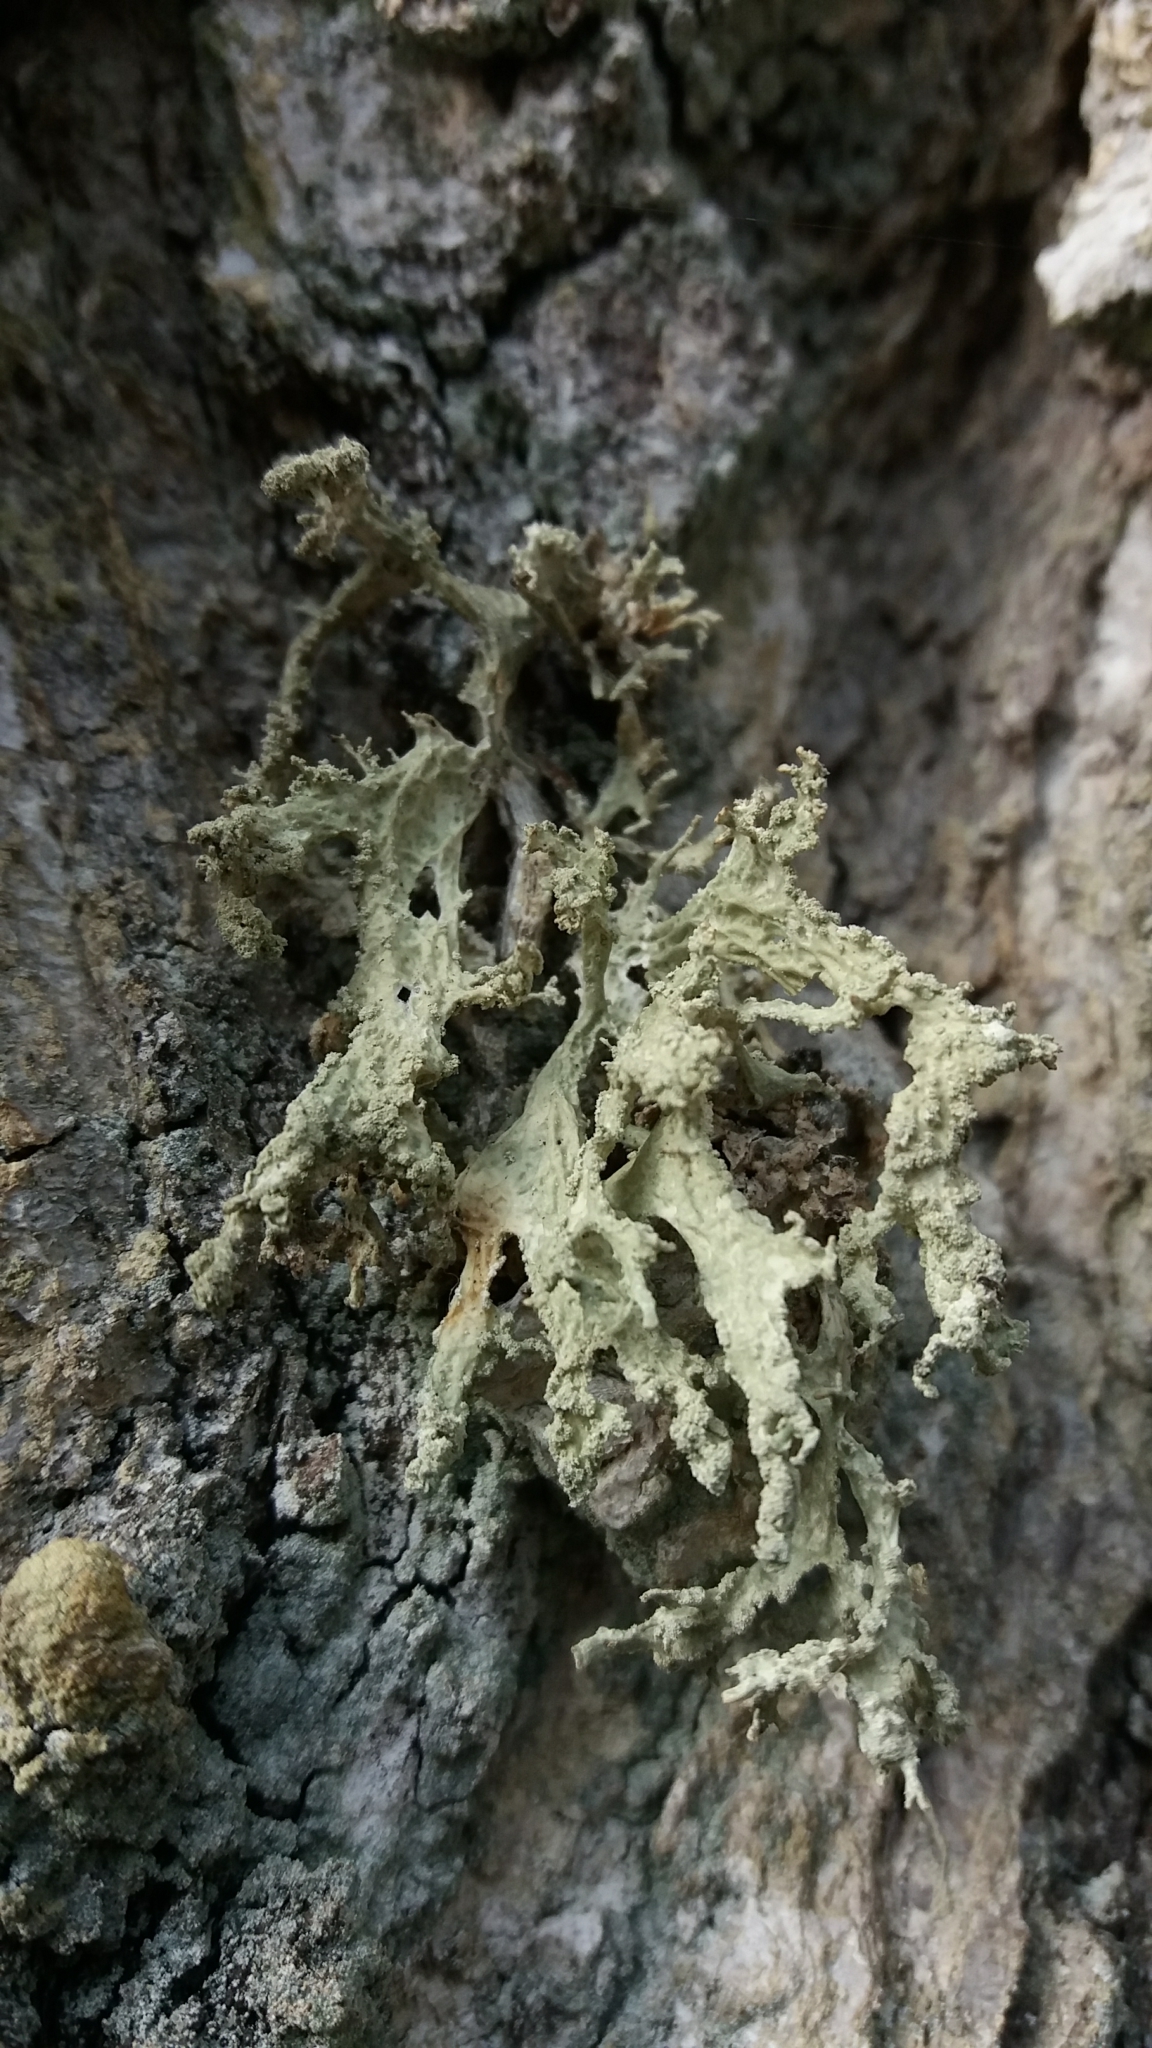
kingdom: Fungi
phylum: Ascomycota
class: Lecanoromycetes
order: Lecanorales
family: Ramalinaceae
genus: Ramalina
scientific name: Ramalina
